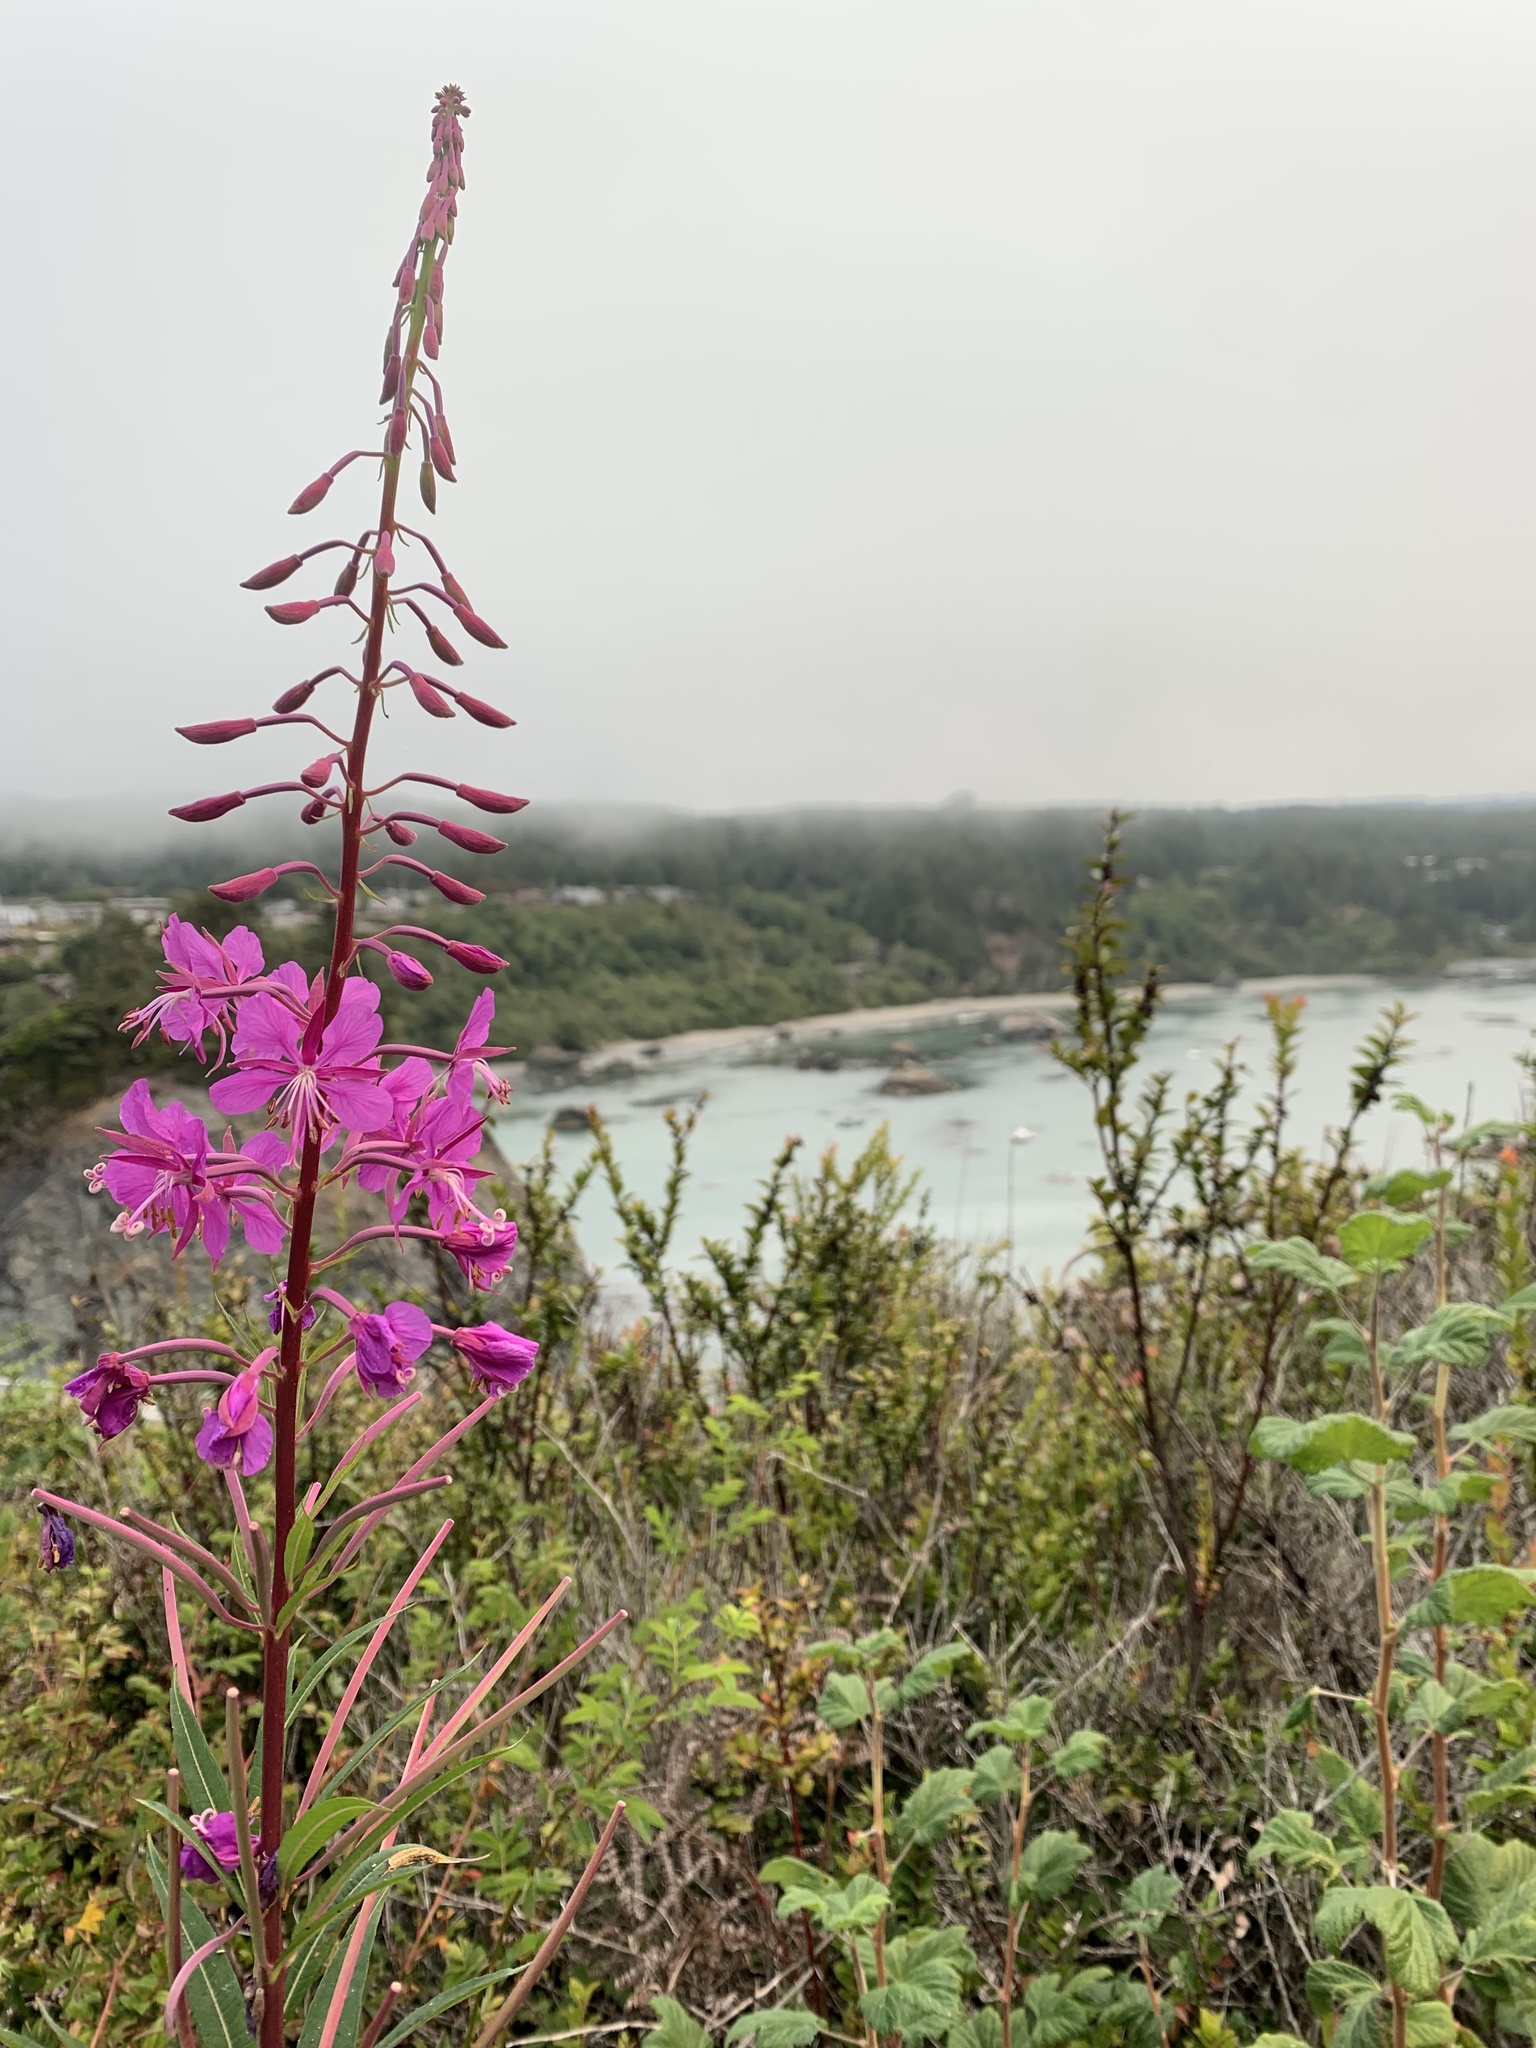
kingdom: Plantae
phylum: Tracheophyta
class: Magnoliopsida
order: Myrtales
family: Onagraceae
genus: Chamaenerion
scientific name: Chamaenerion angustifolium
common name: Fireweed
